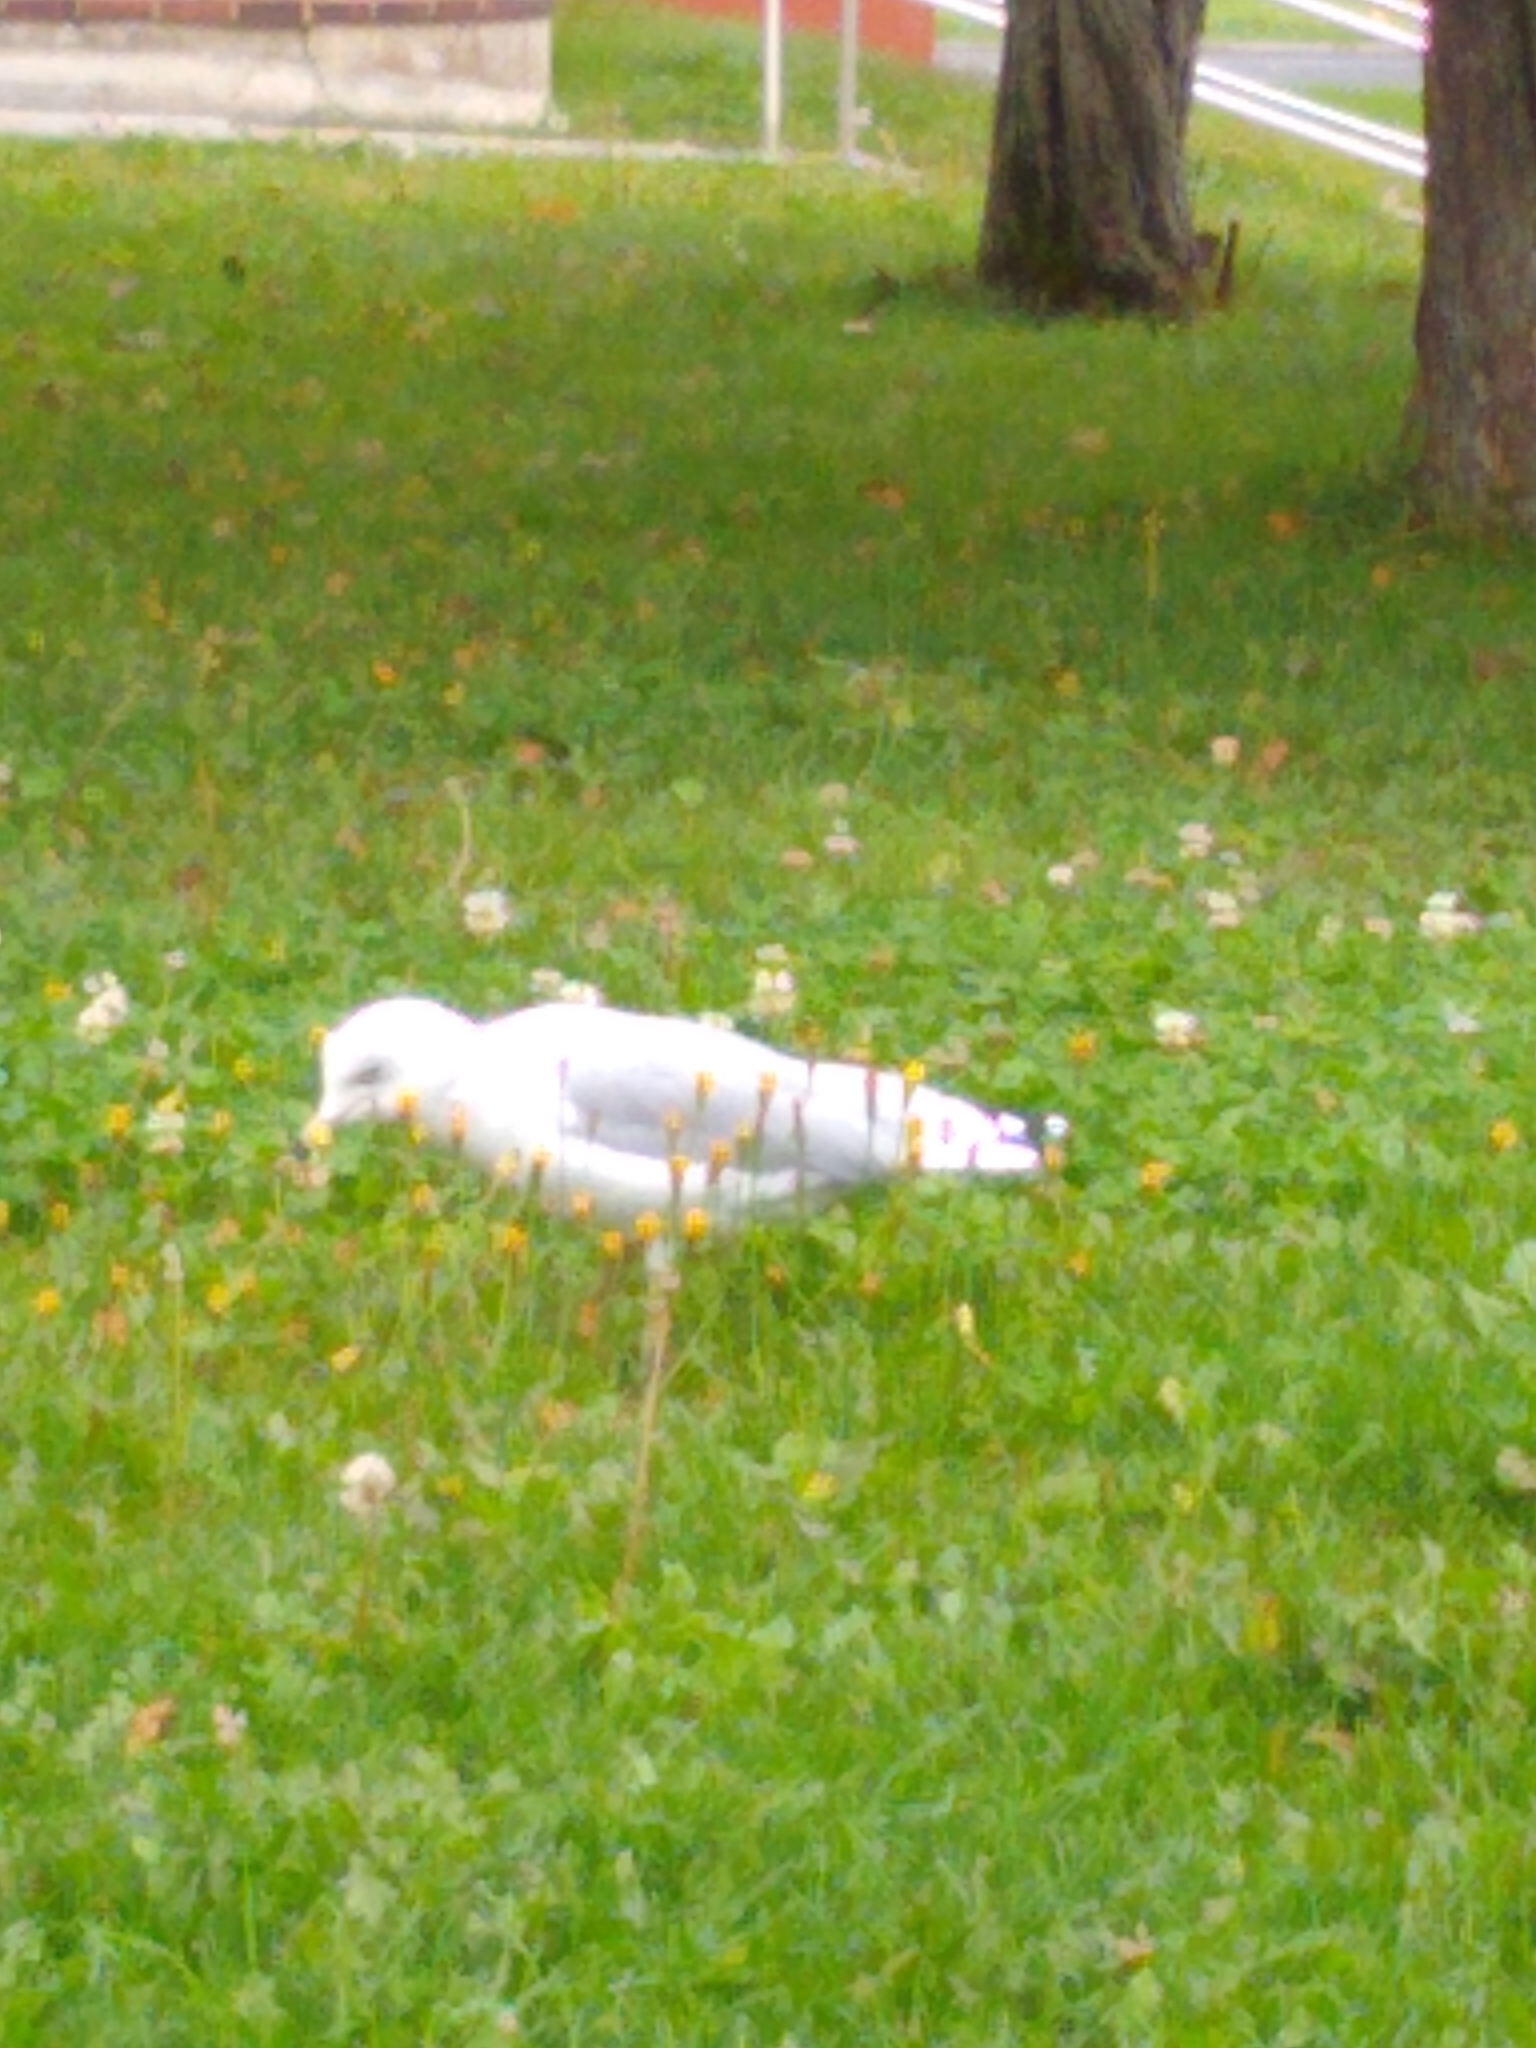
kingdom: Animalia
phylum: Chordata
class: Aves
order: Charadriiformes
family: Laridae
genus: Larus
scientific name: Larus delawarensis
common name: Ring-billed gull
